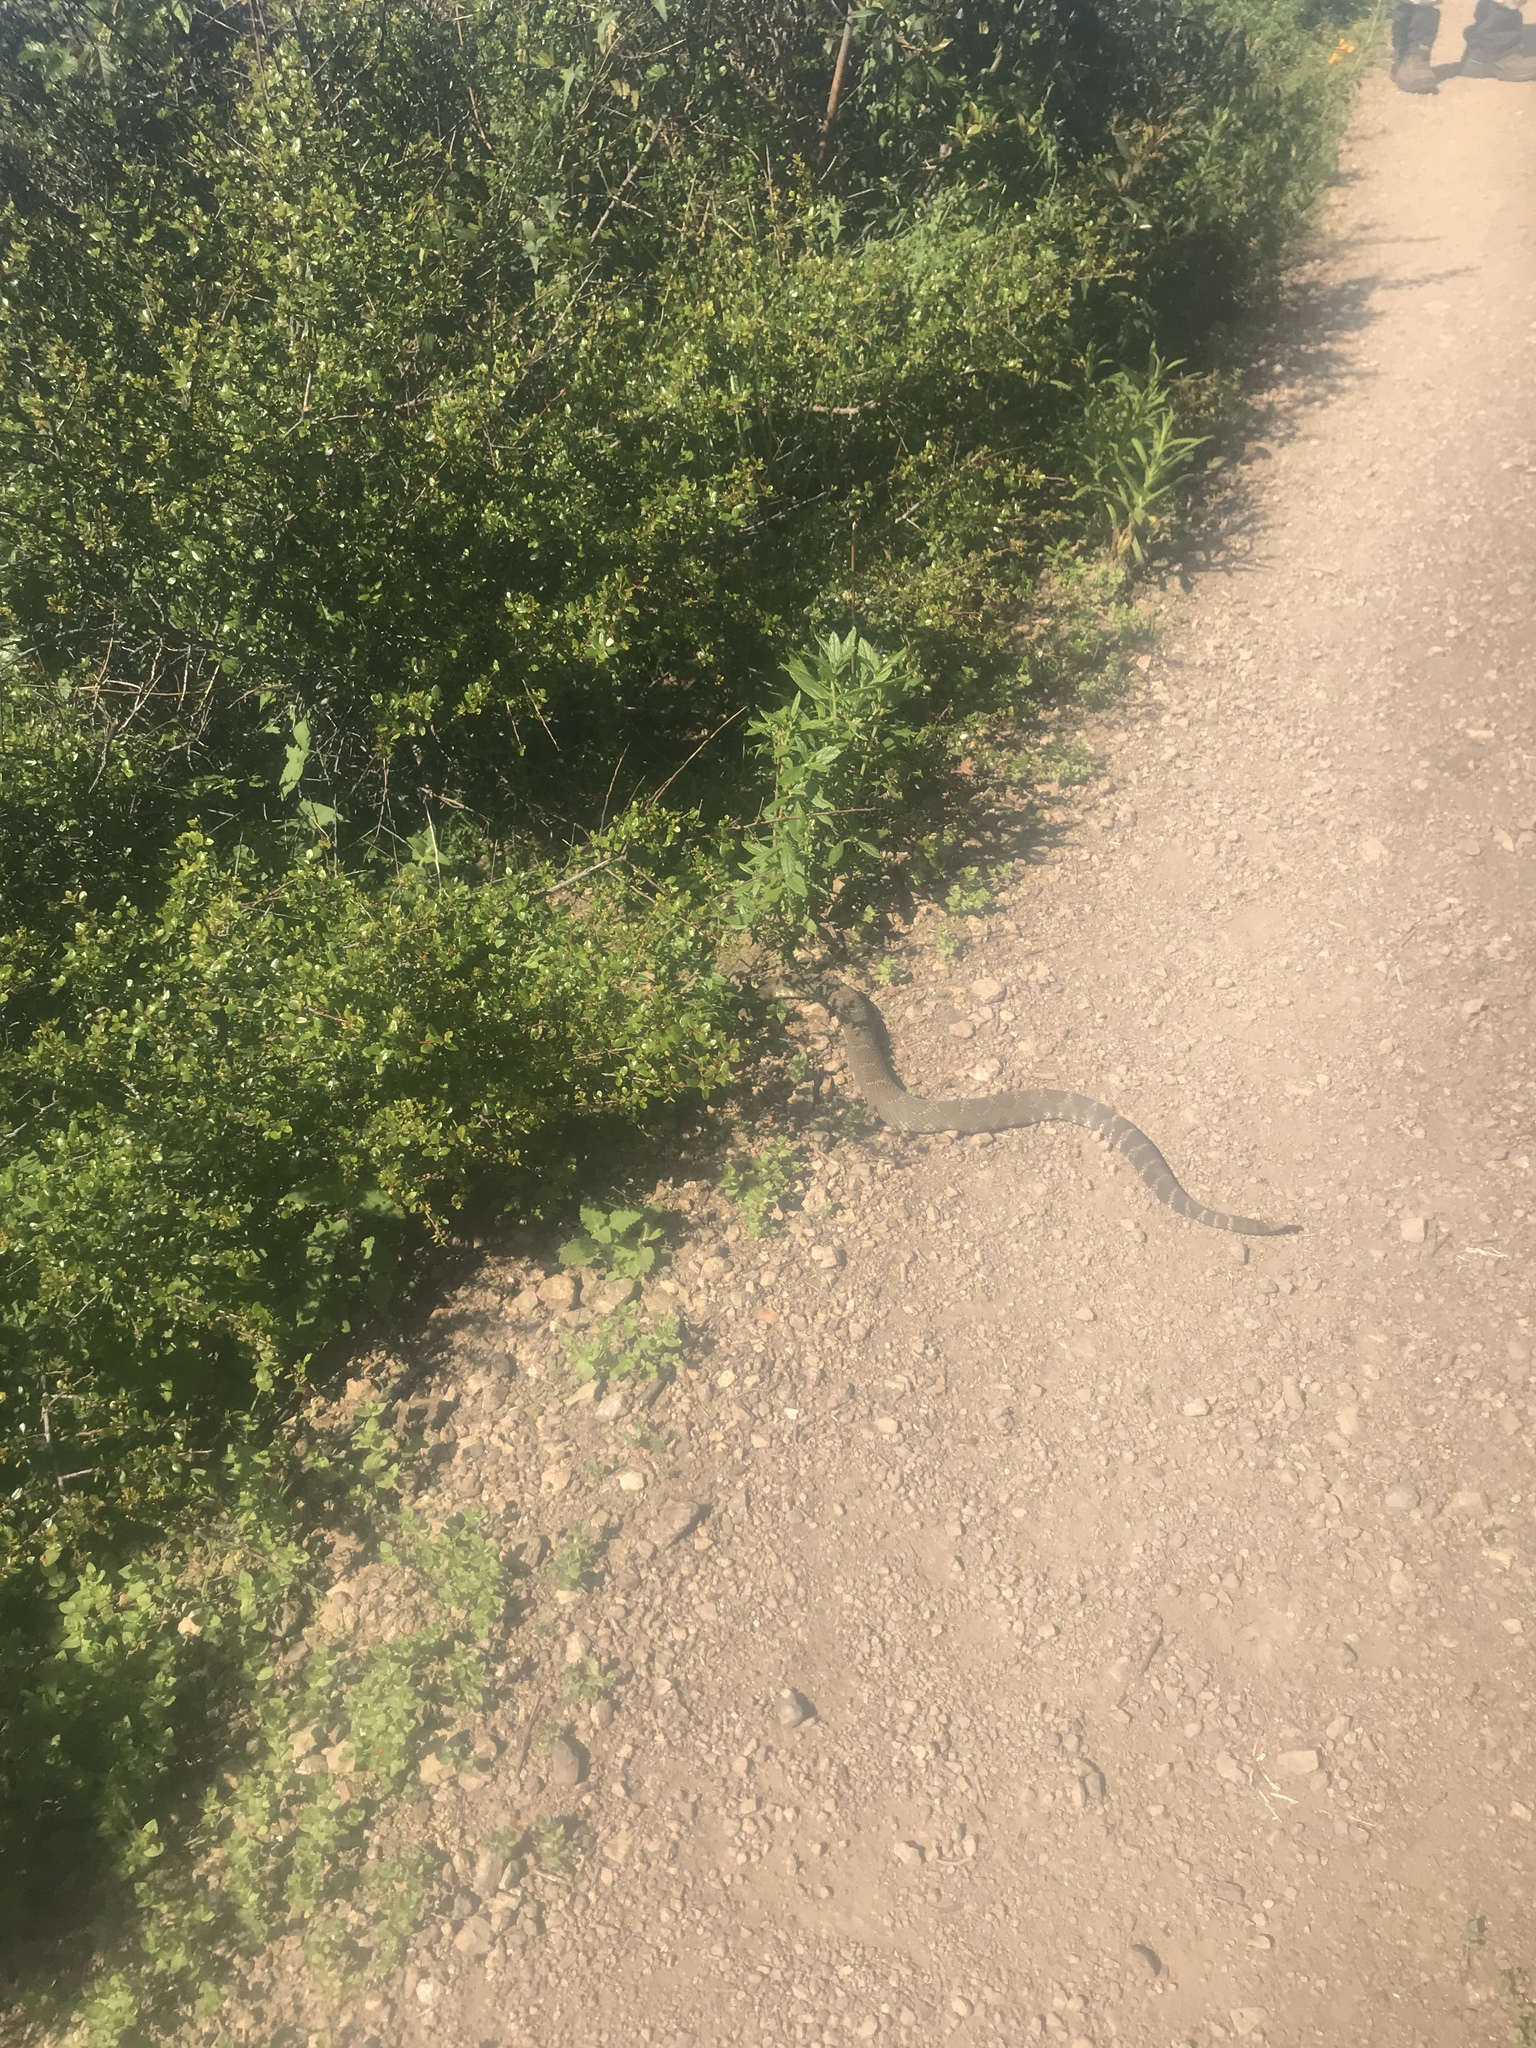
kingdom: Animalia
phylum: Chordata
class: Squamata
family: Viperidae
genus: Crotalus
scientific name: Crotalus oreganus
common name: Abyssus
